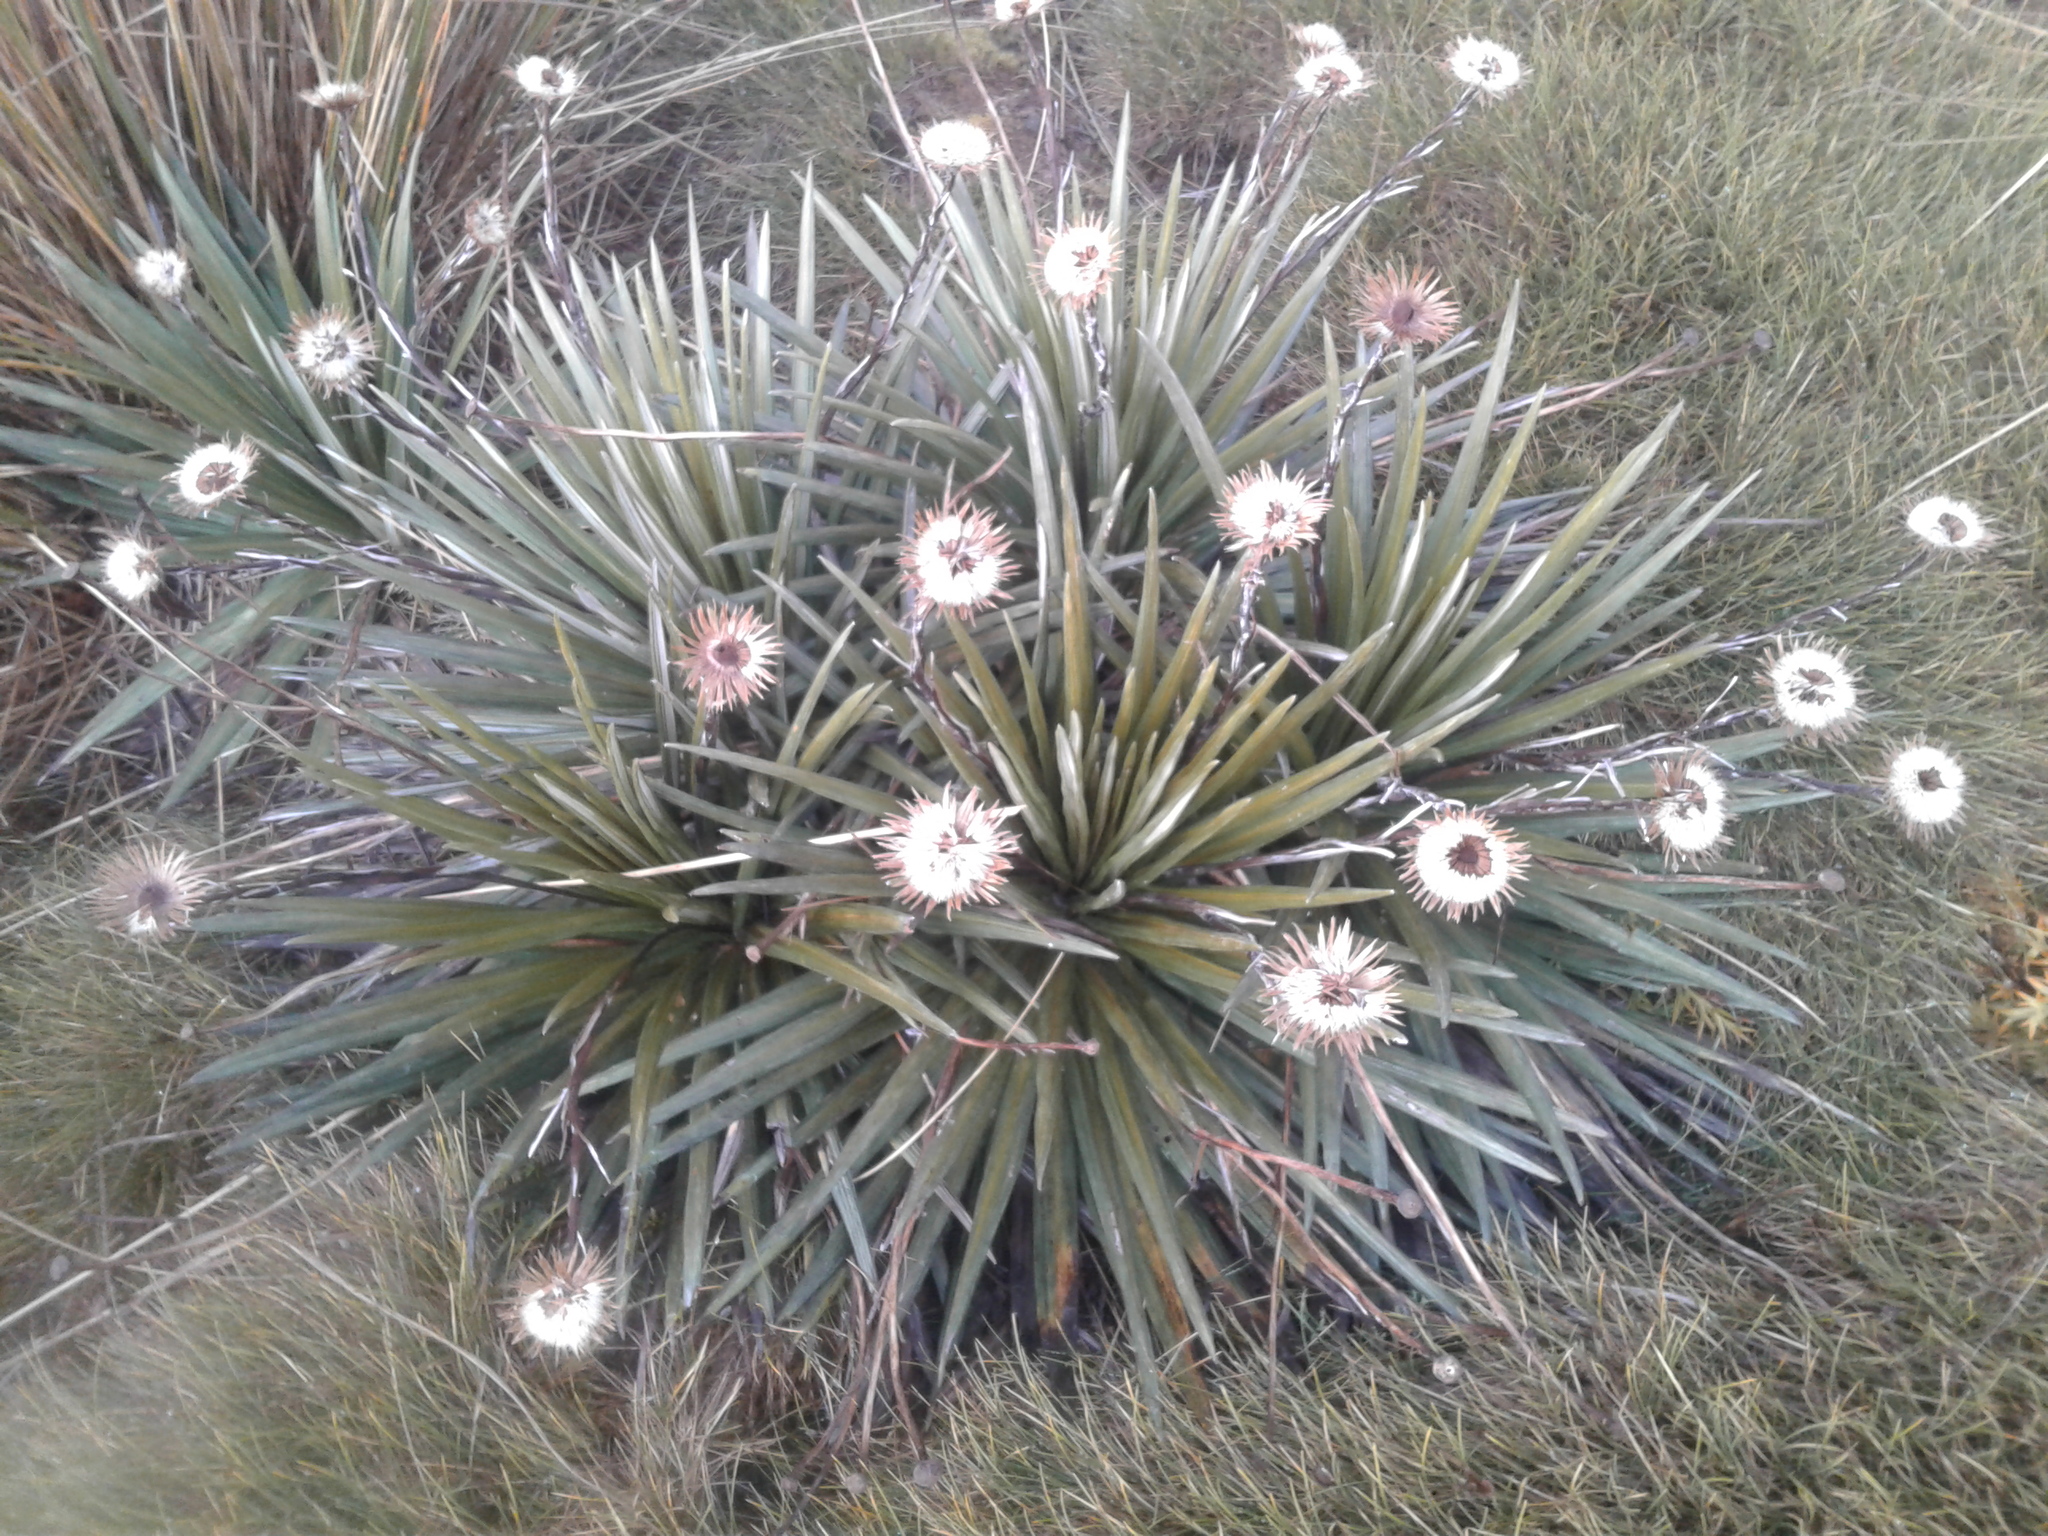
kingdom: Plantae
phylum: Tracheophyta
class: Magnoliopsida
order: Asterales
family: Asteraceae
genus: Celmisia
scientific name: Celmisia armstrongii
